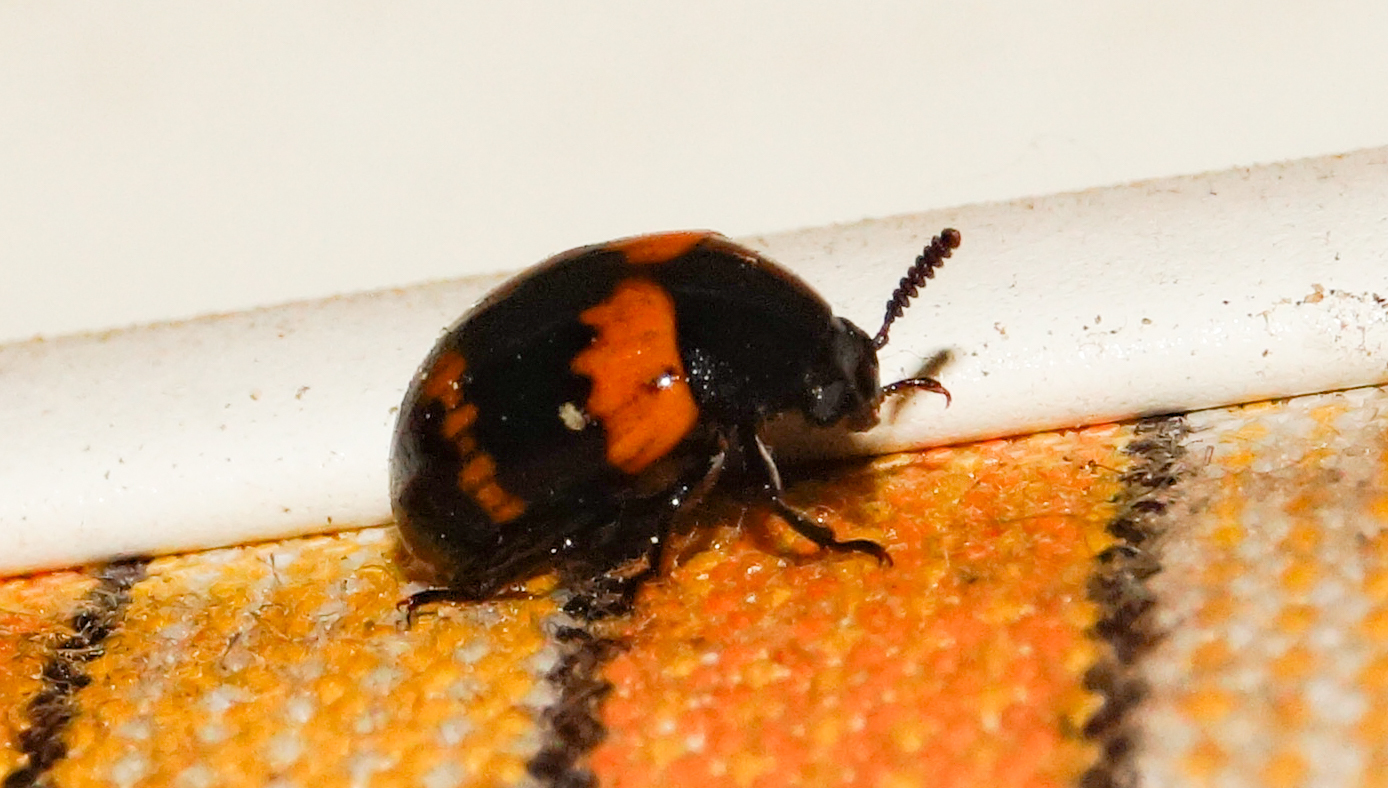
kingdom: Animalia
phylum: Arthropoda
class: Insecta
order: Coleoptera
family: Tenebrionidae
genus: Diaperis
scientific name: Diaperis boleti
